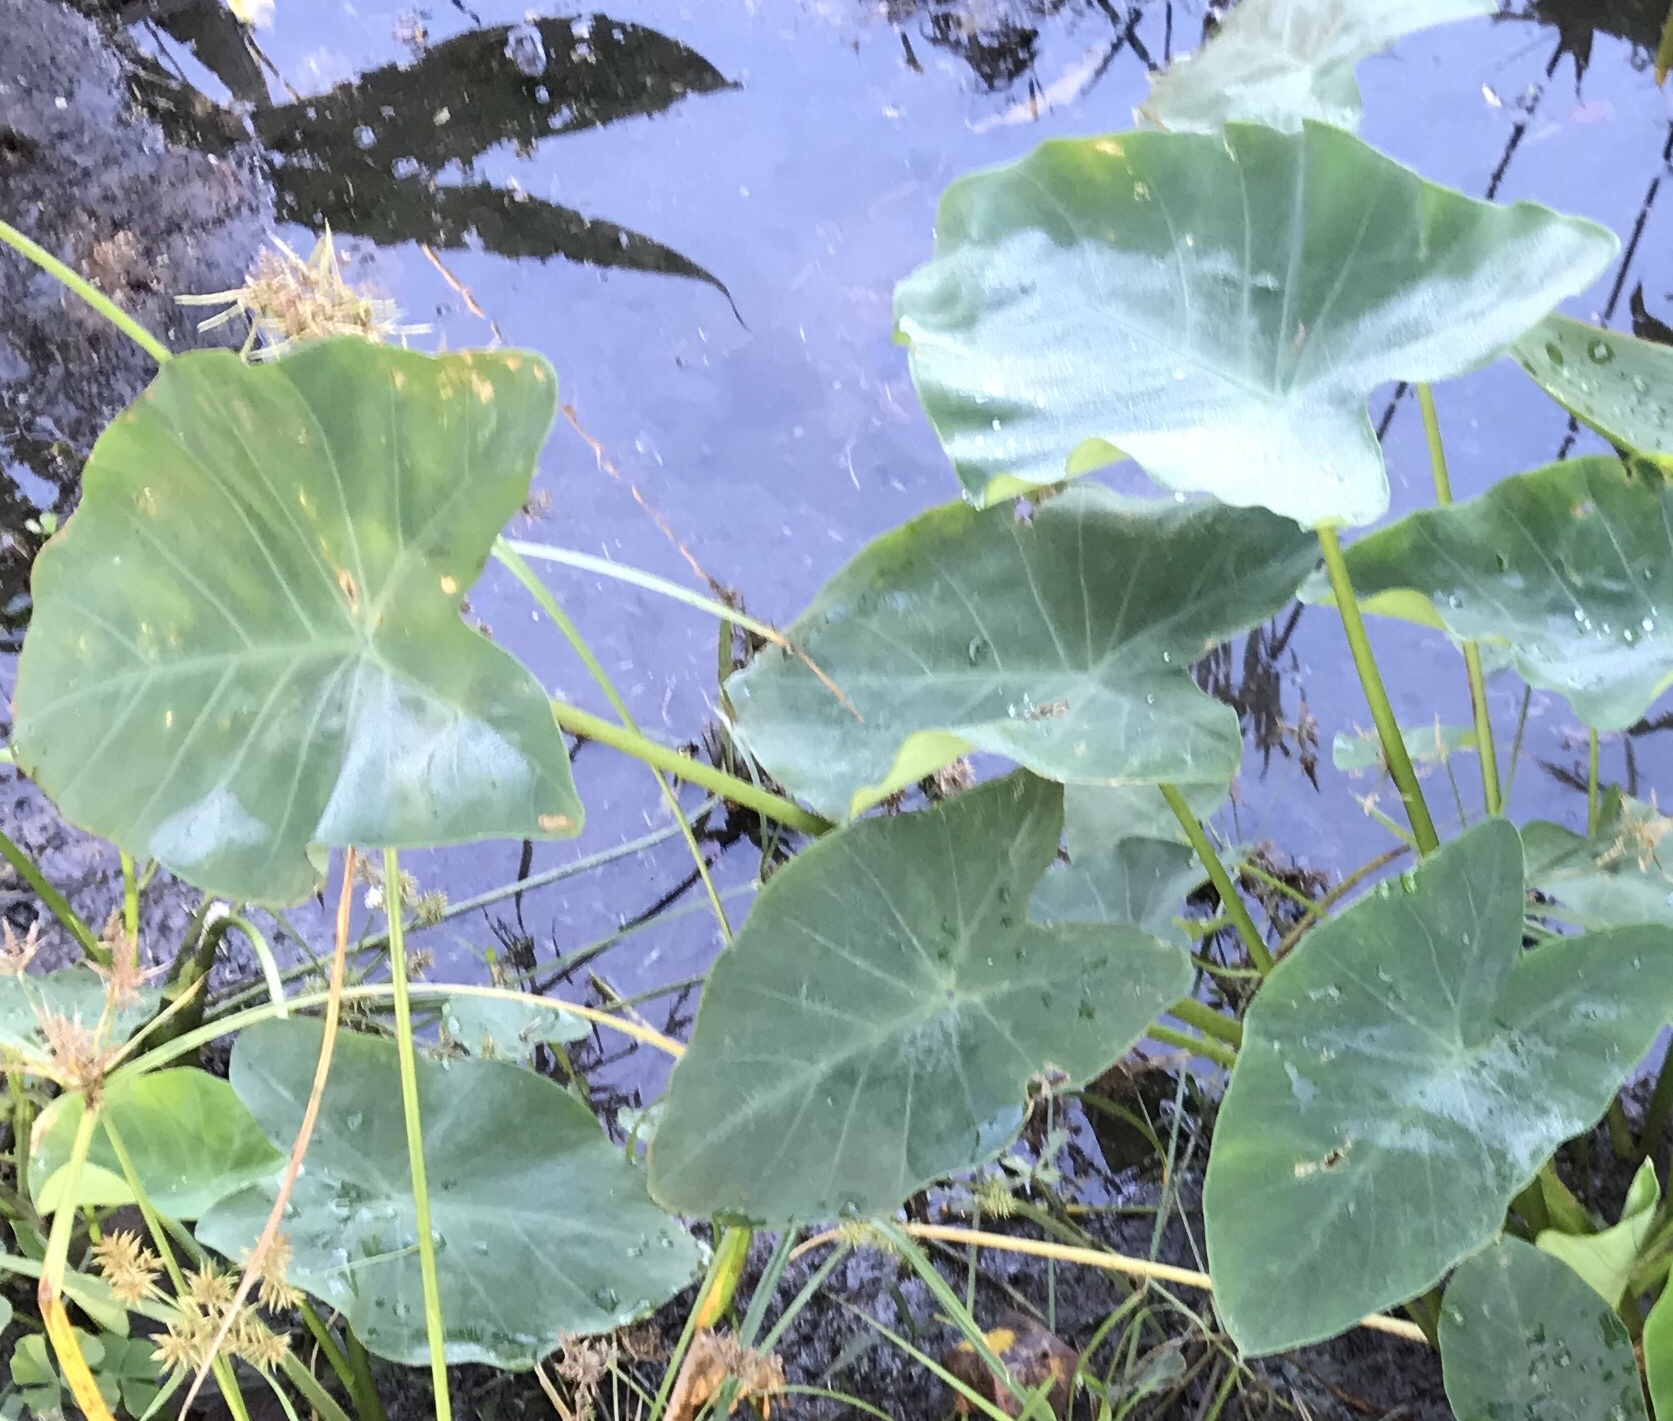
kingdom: Plantae
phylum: Tracheophyta
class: Liliopsida
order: Alismatales
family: Araceae
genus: Colocasia
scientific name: Colocasia esculenta
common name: Taro
